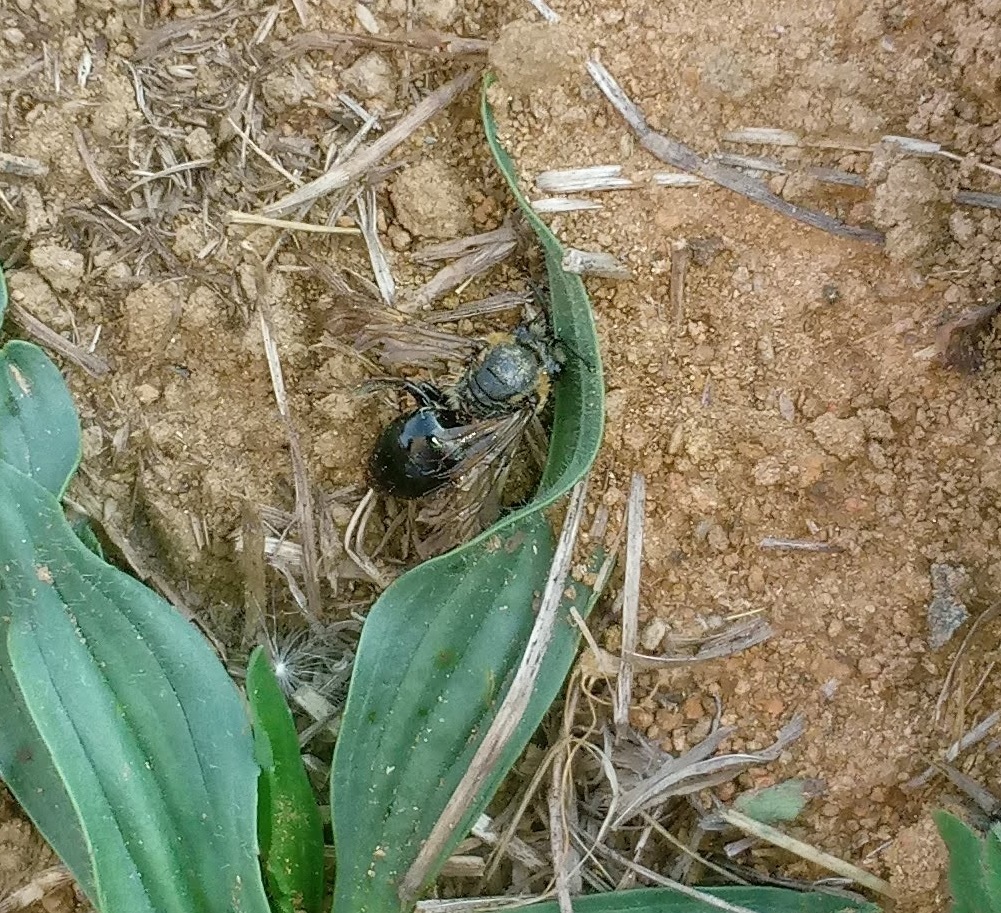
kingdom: Animalia
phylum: Arthropoda
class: Insecta
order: Hymenoptera
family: Colletidae
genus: Colletes
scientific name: Colletes thoracicus
